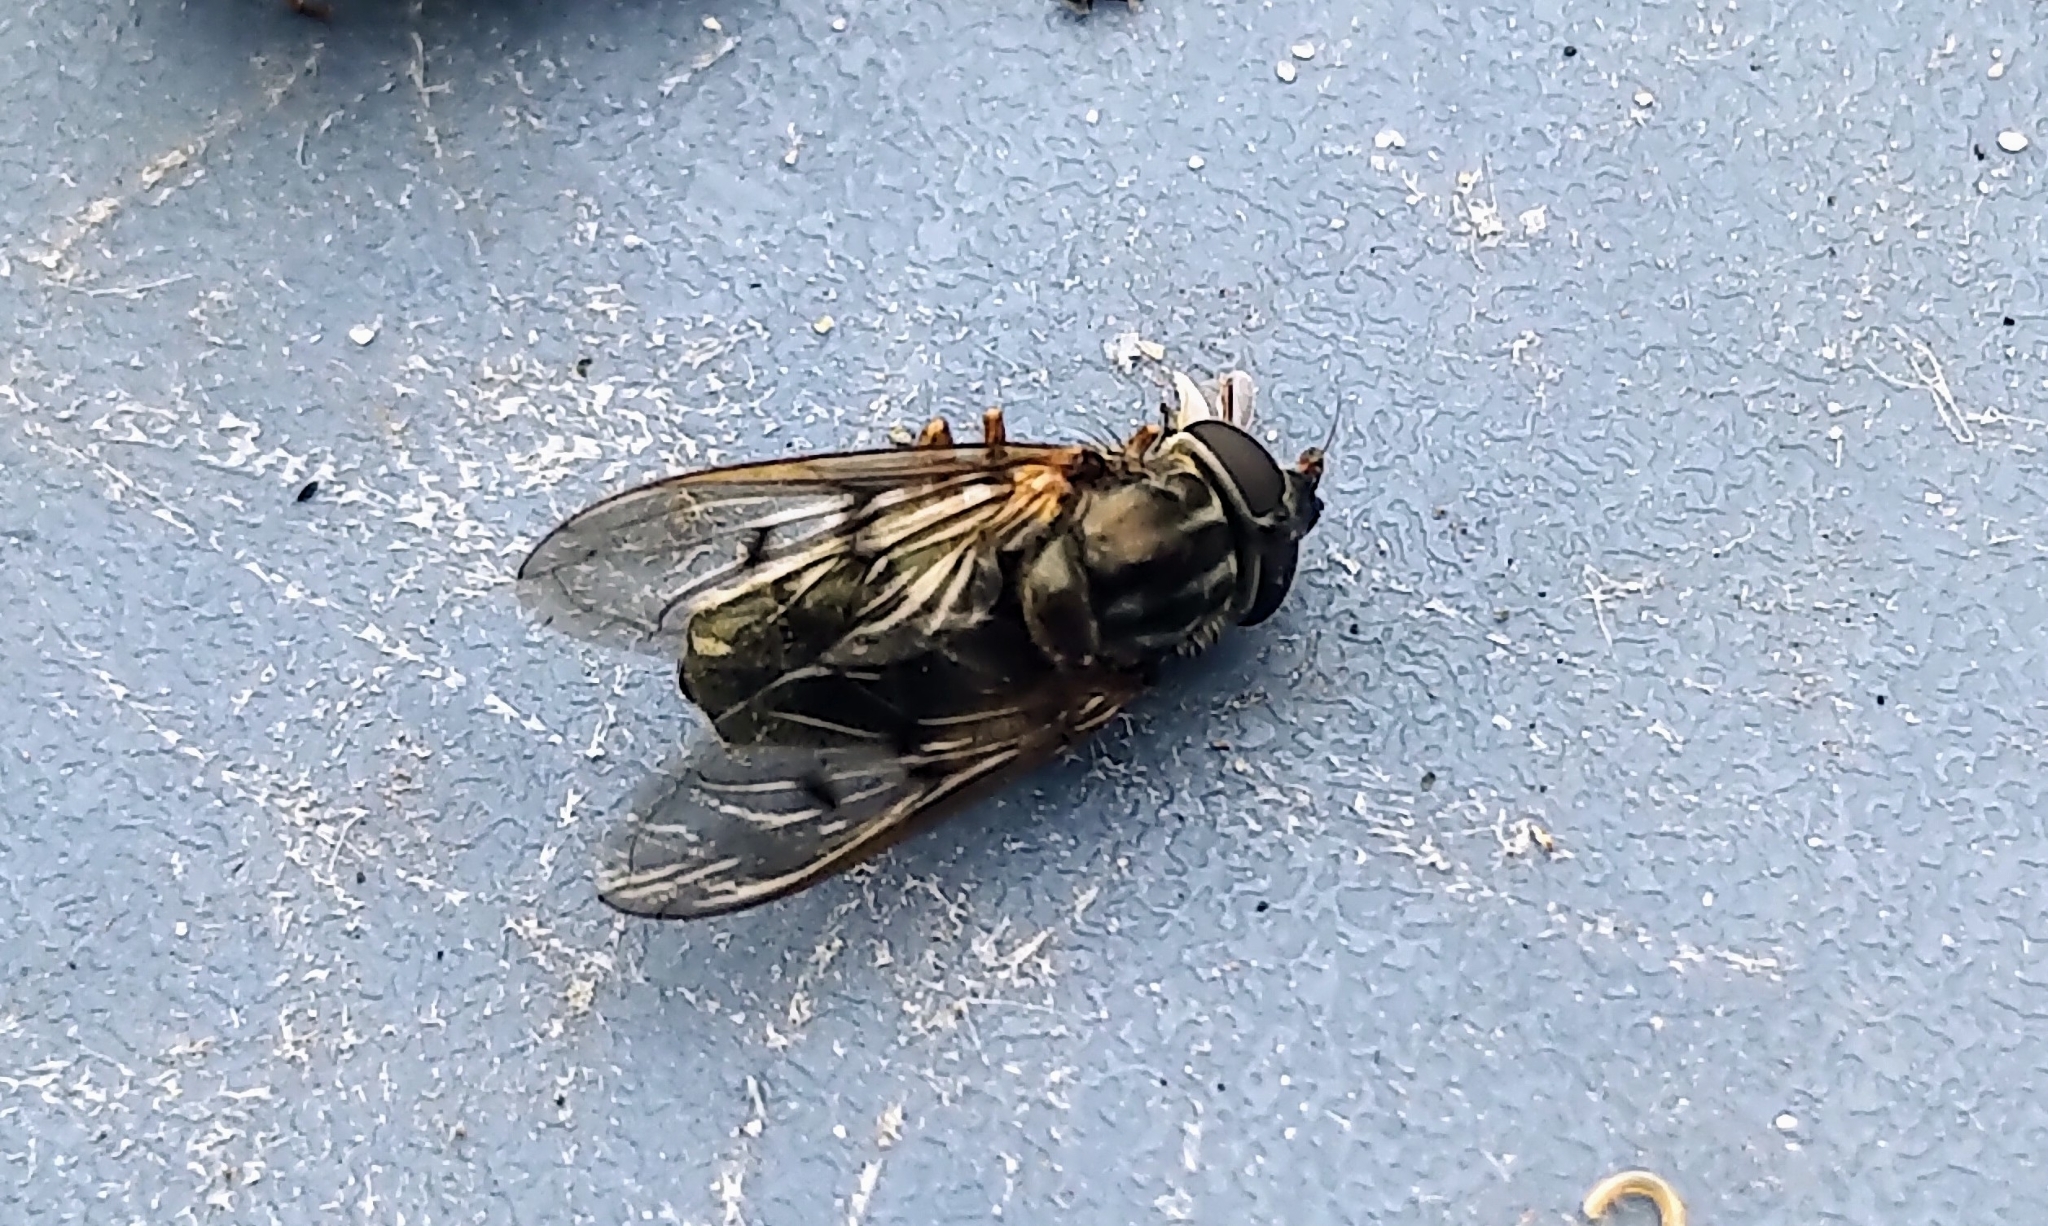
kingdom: Animalia
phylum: Arthropoda
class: Insecta
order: Diptera
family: Syrphidae
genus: Ferdinandea
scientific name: Ferdinandea buccata
